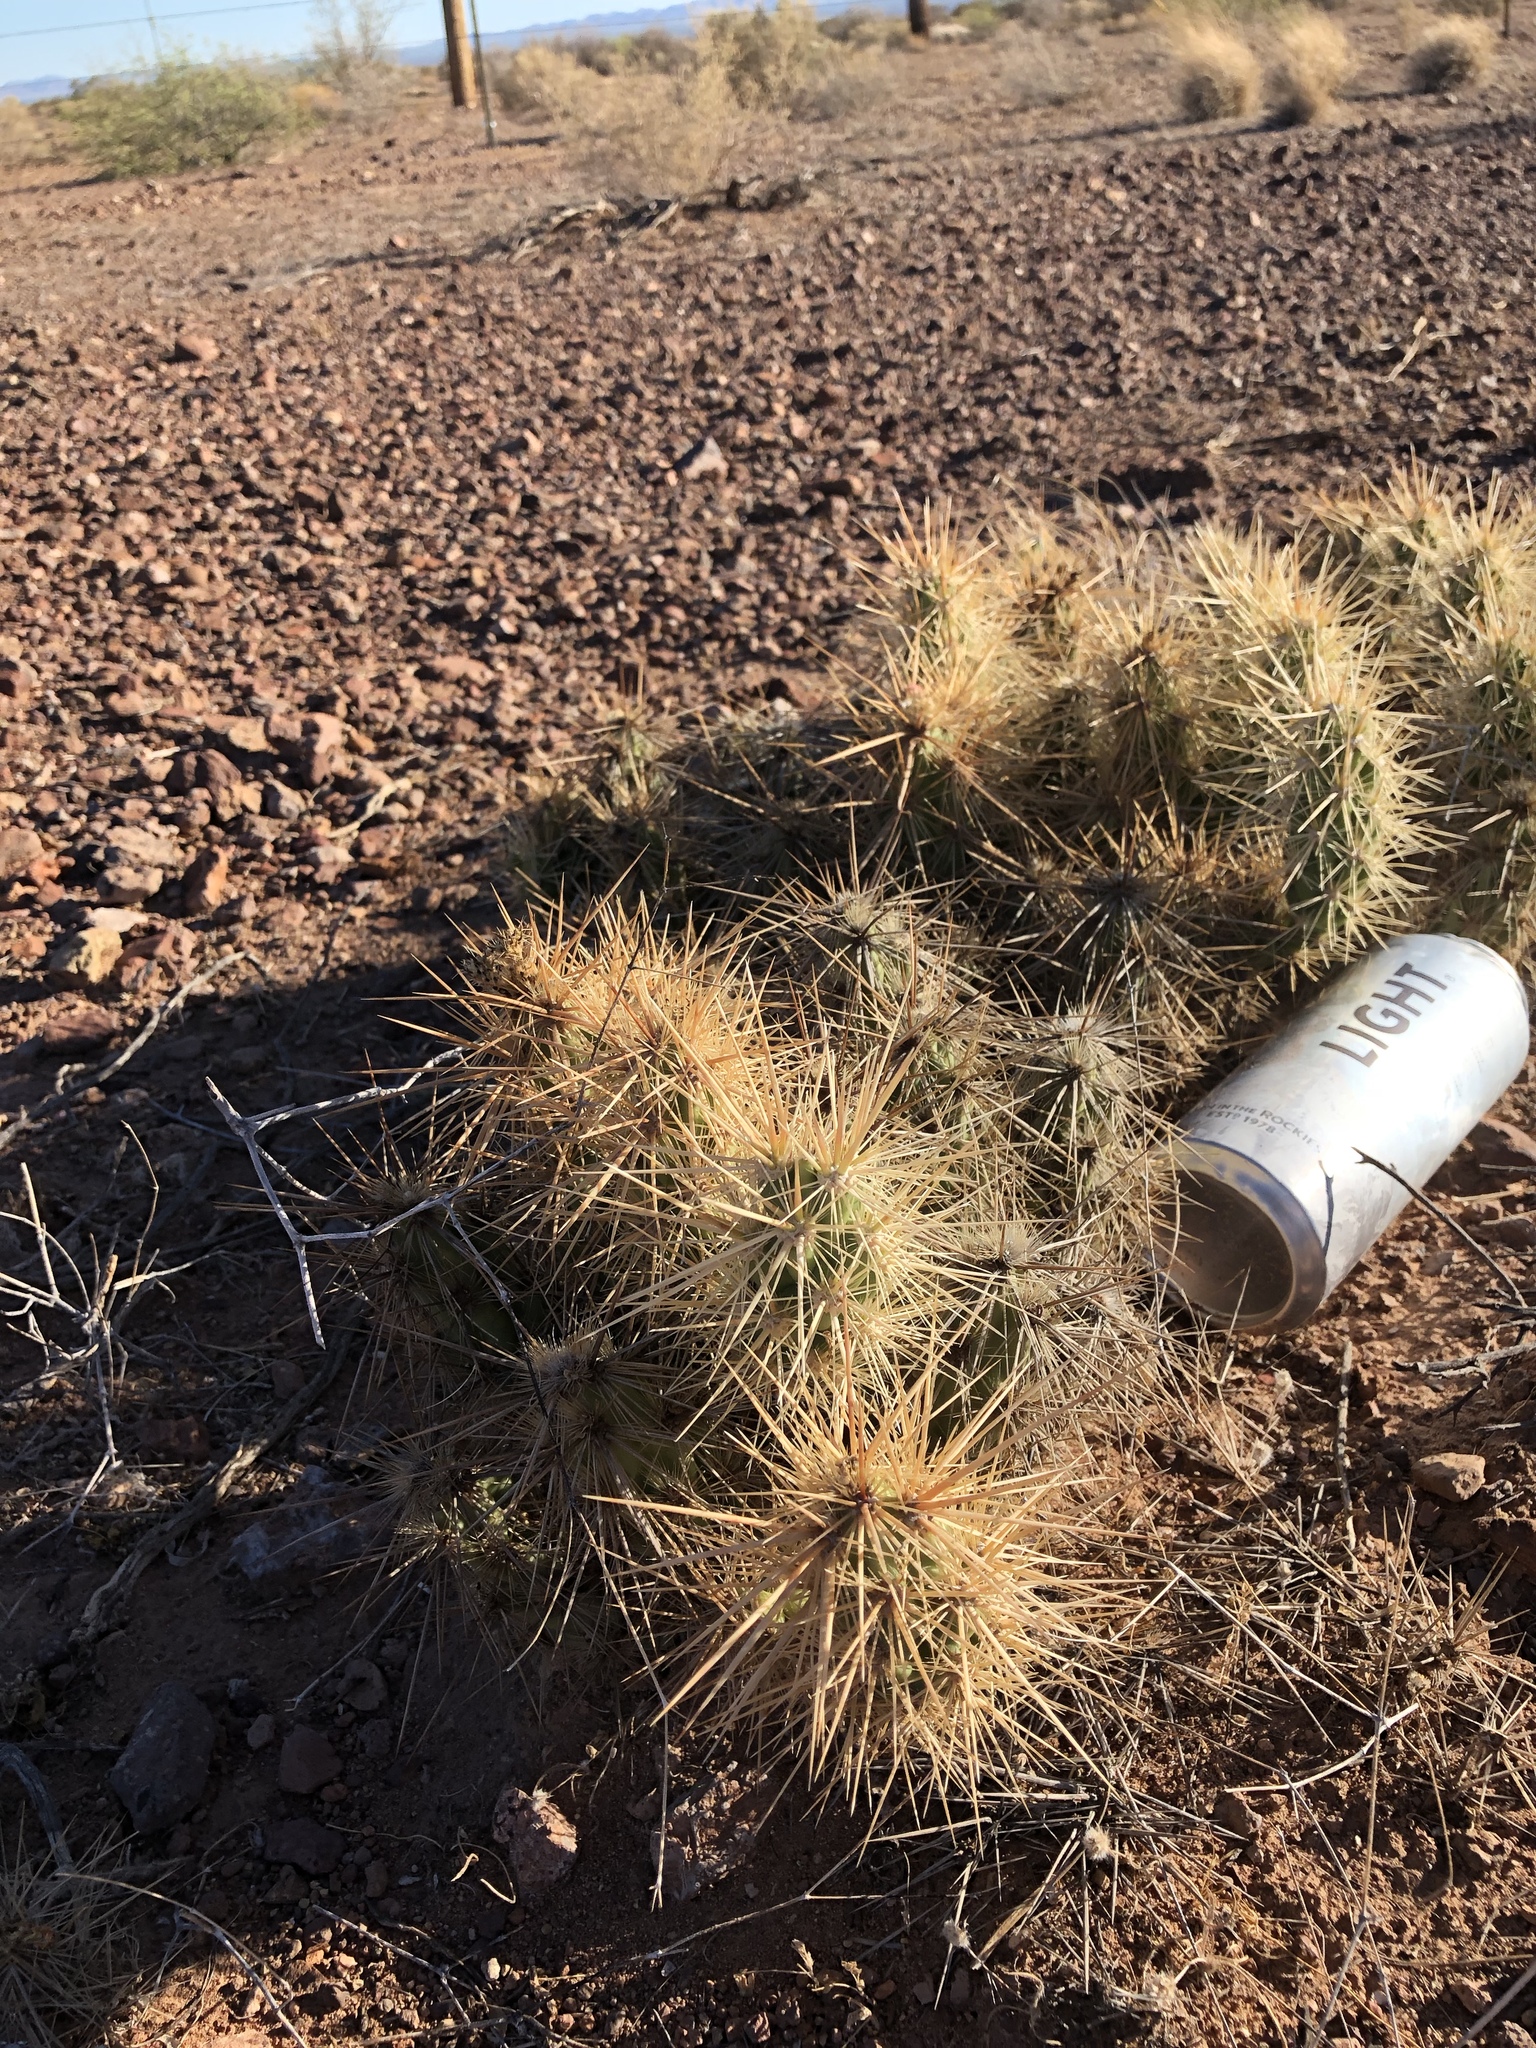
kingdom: Plantae
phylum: Tracheophyta
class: Magnoliopsida
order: Caryophyllales
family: Cactaceae
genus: Grusonia
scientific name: Grusonia emoryi
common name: Stanly's club cholla
